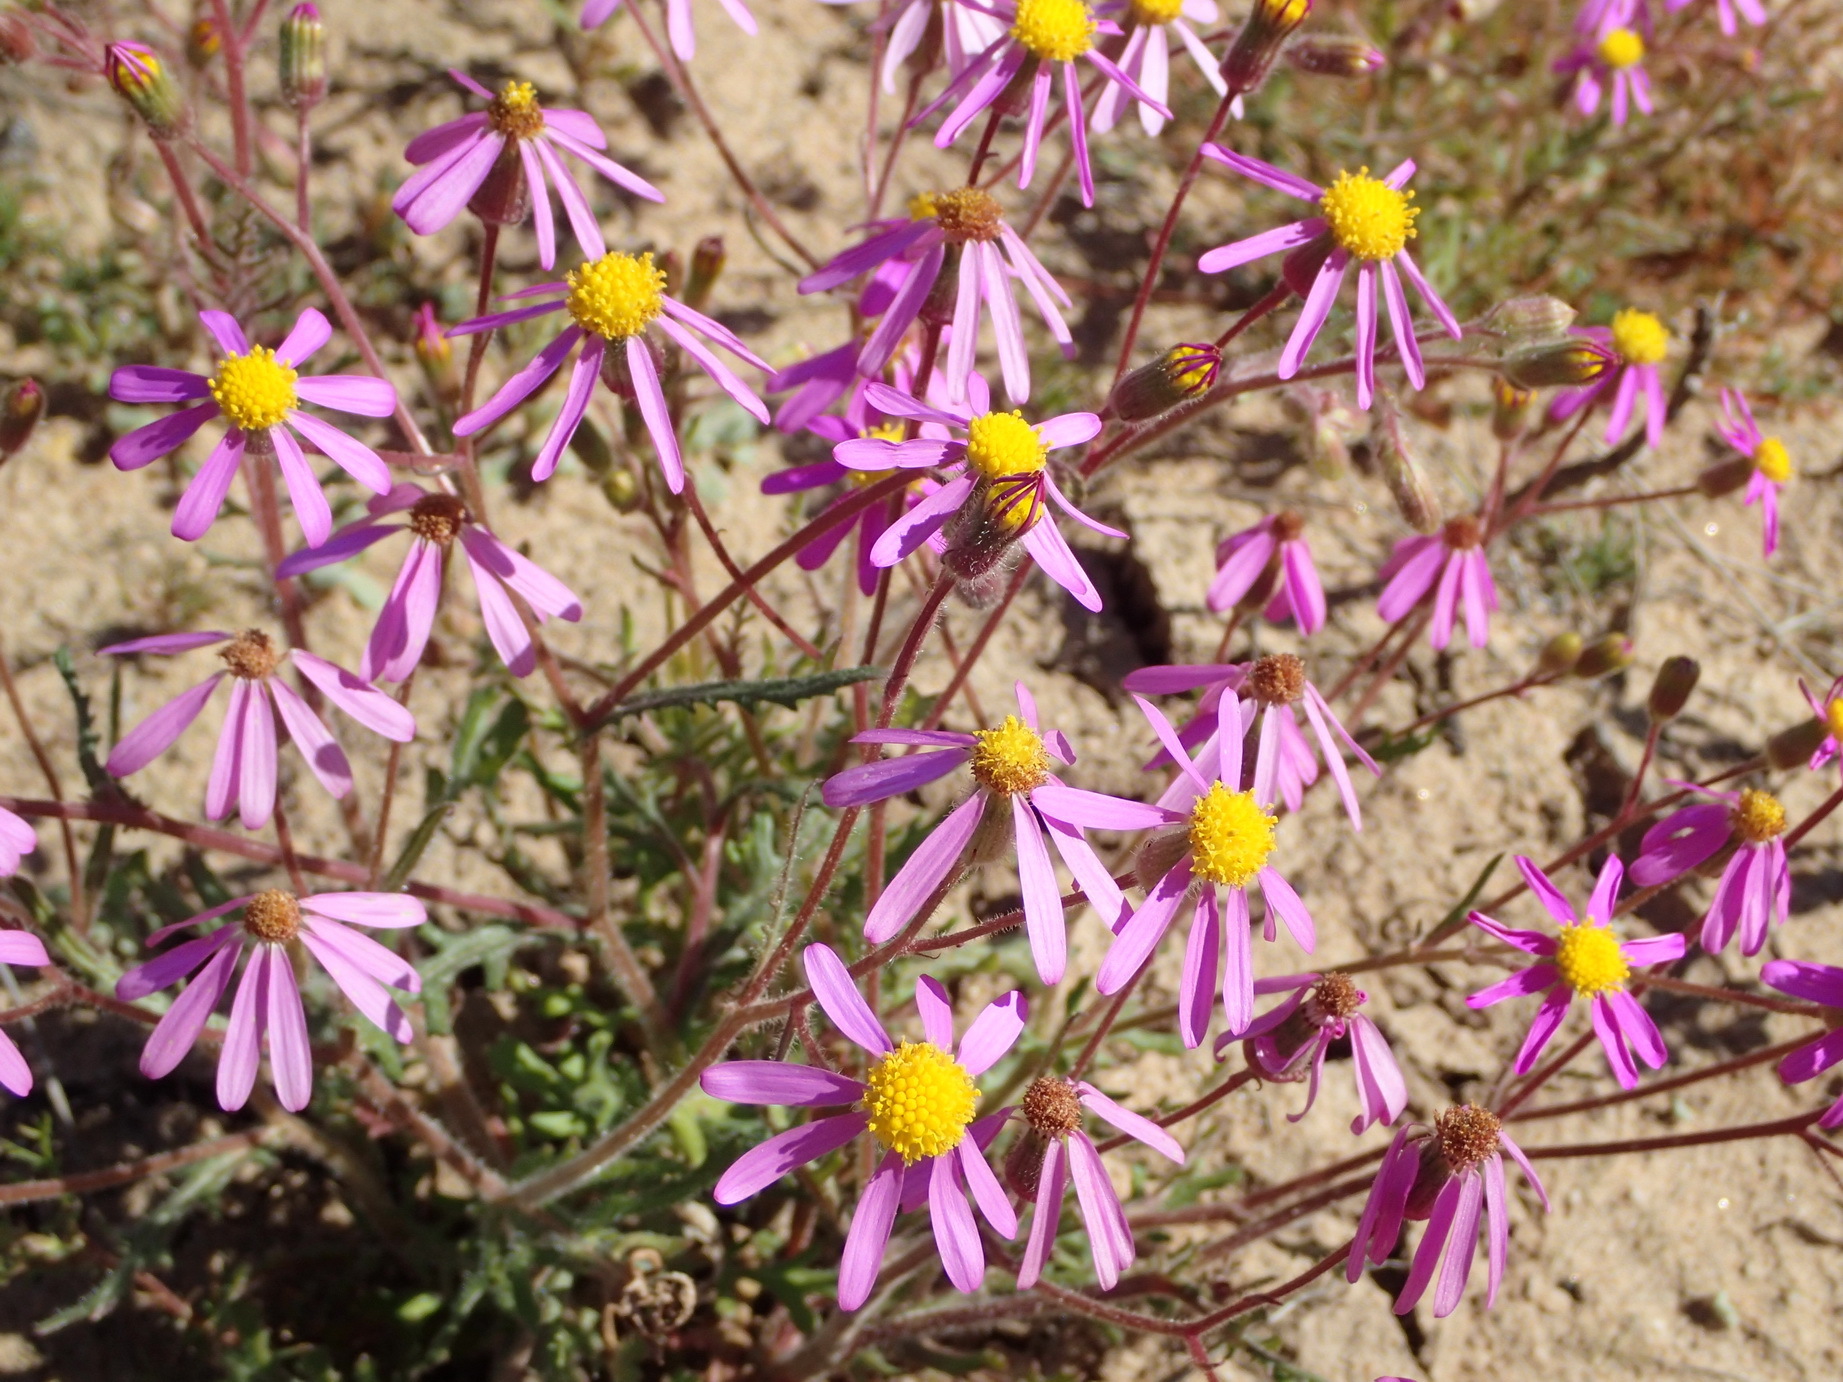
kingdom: Plantae
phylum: Tracheophyta
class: Magnoliopsida
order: Asterales
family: Asteraceae
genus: Senecio
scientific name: Senecio arenarius
